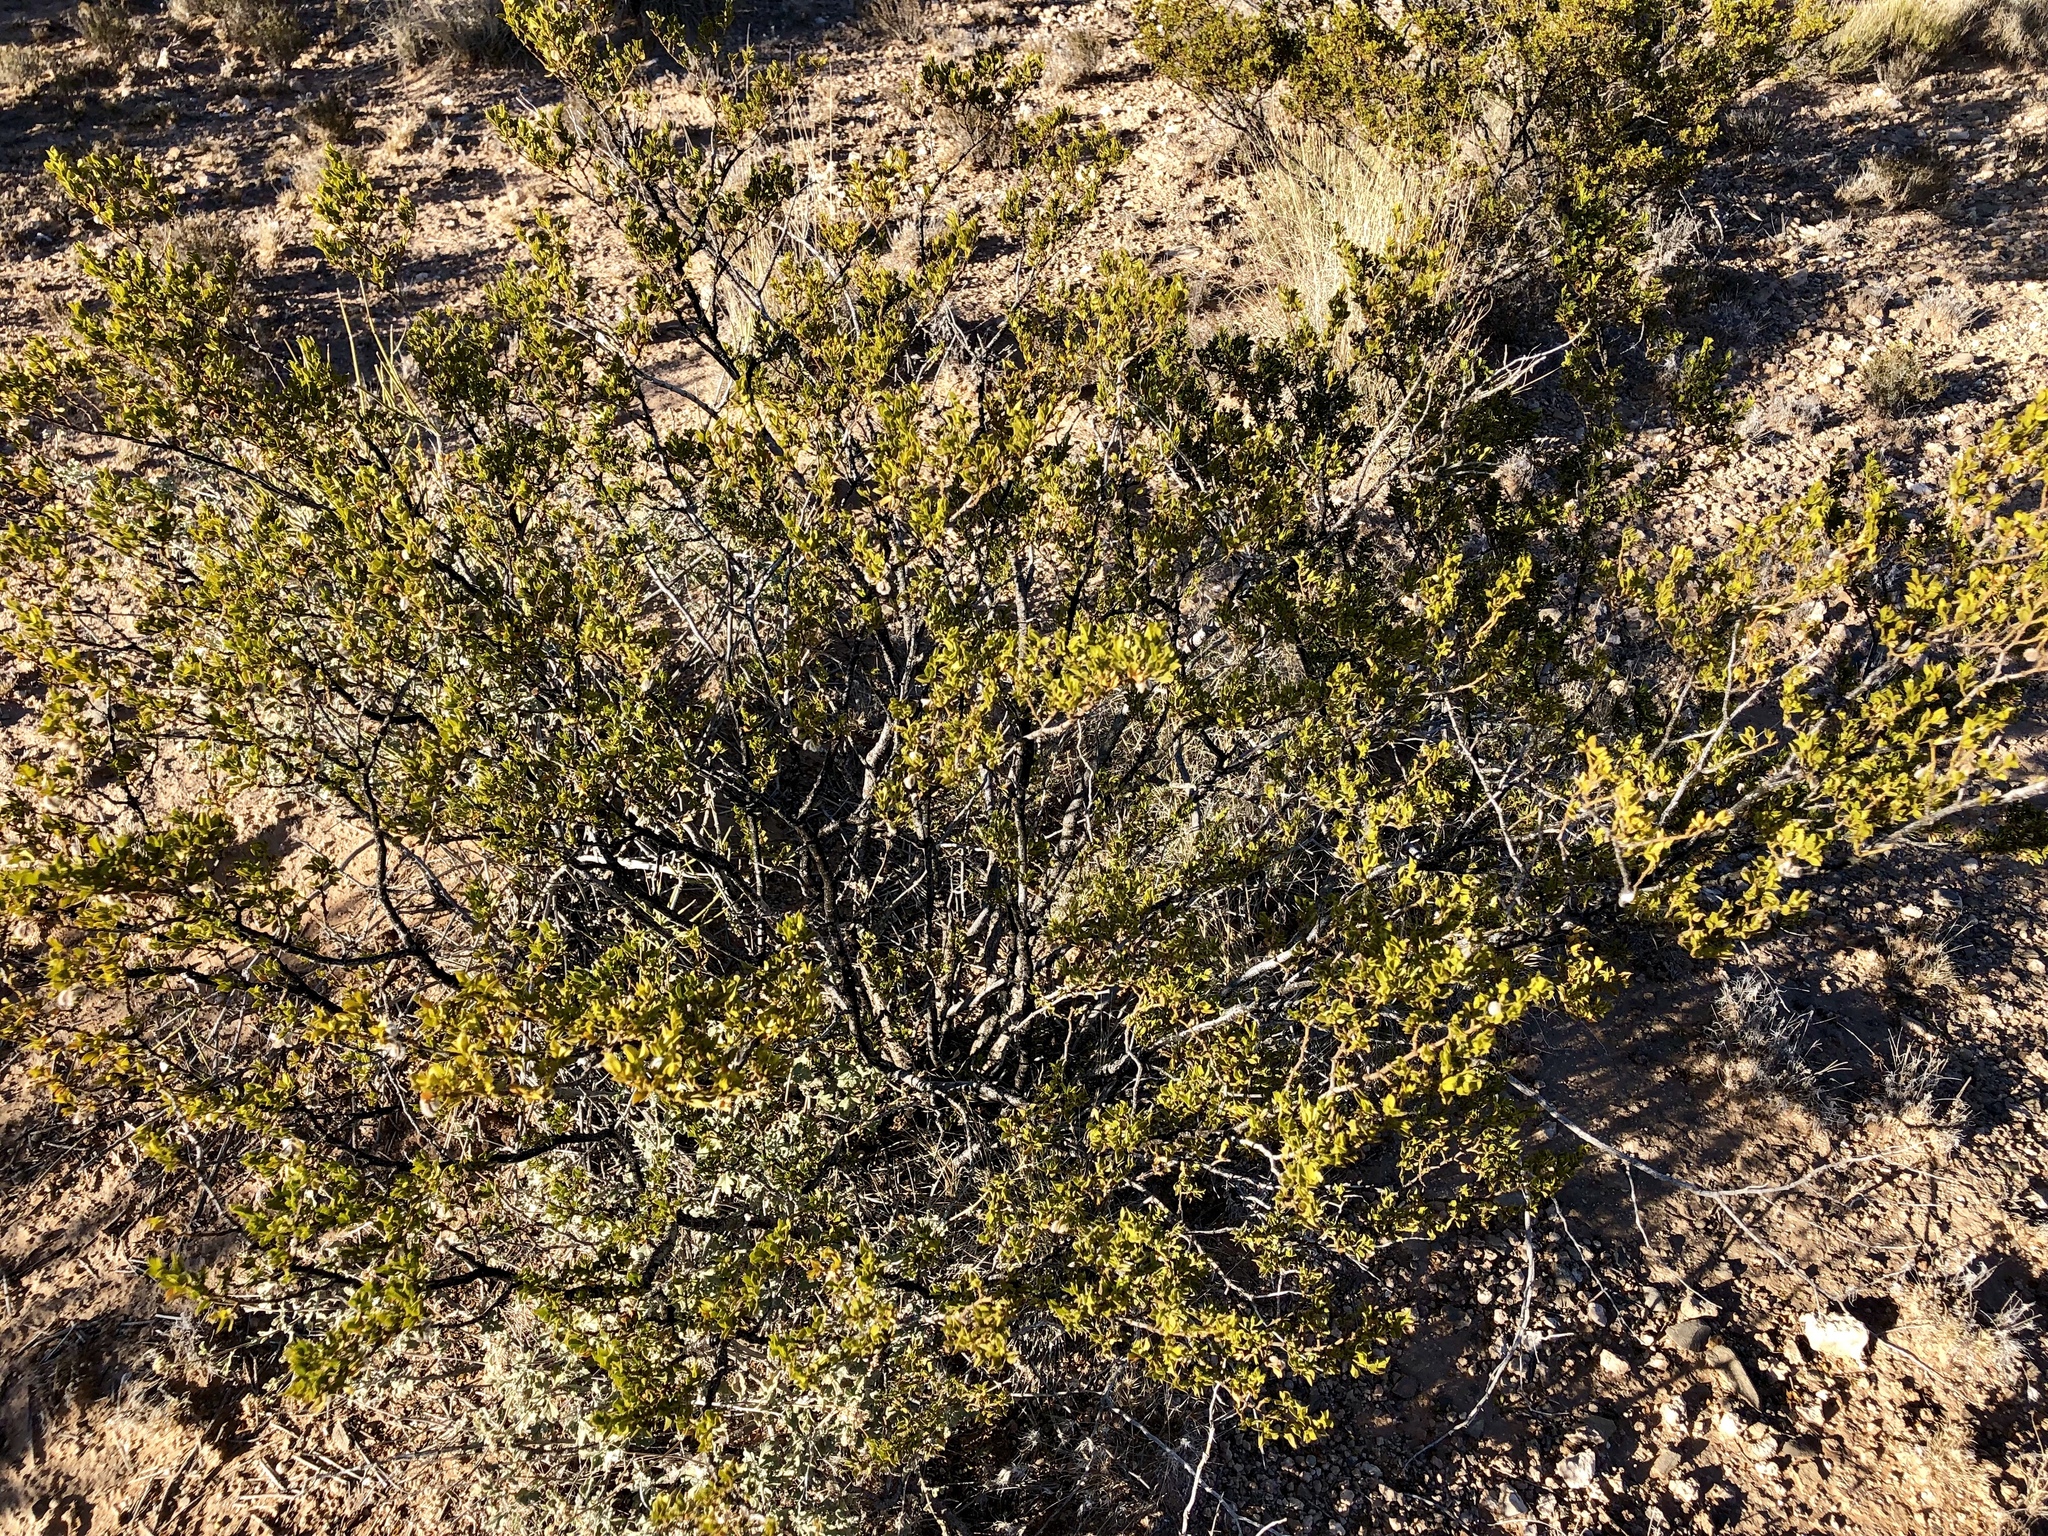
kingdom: Plantae
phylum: Tracheophyta
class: Magnoliopsida
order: Zygophyllales
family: Zygophyllaceae
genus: Larrea
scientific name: Larrea tridentata
